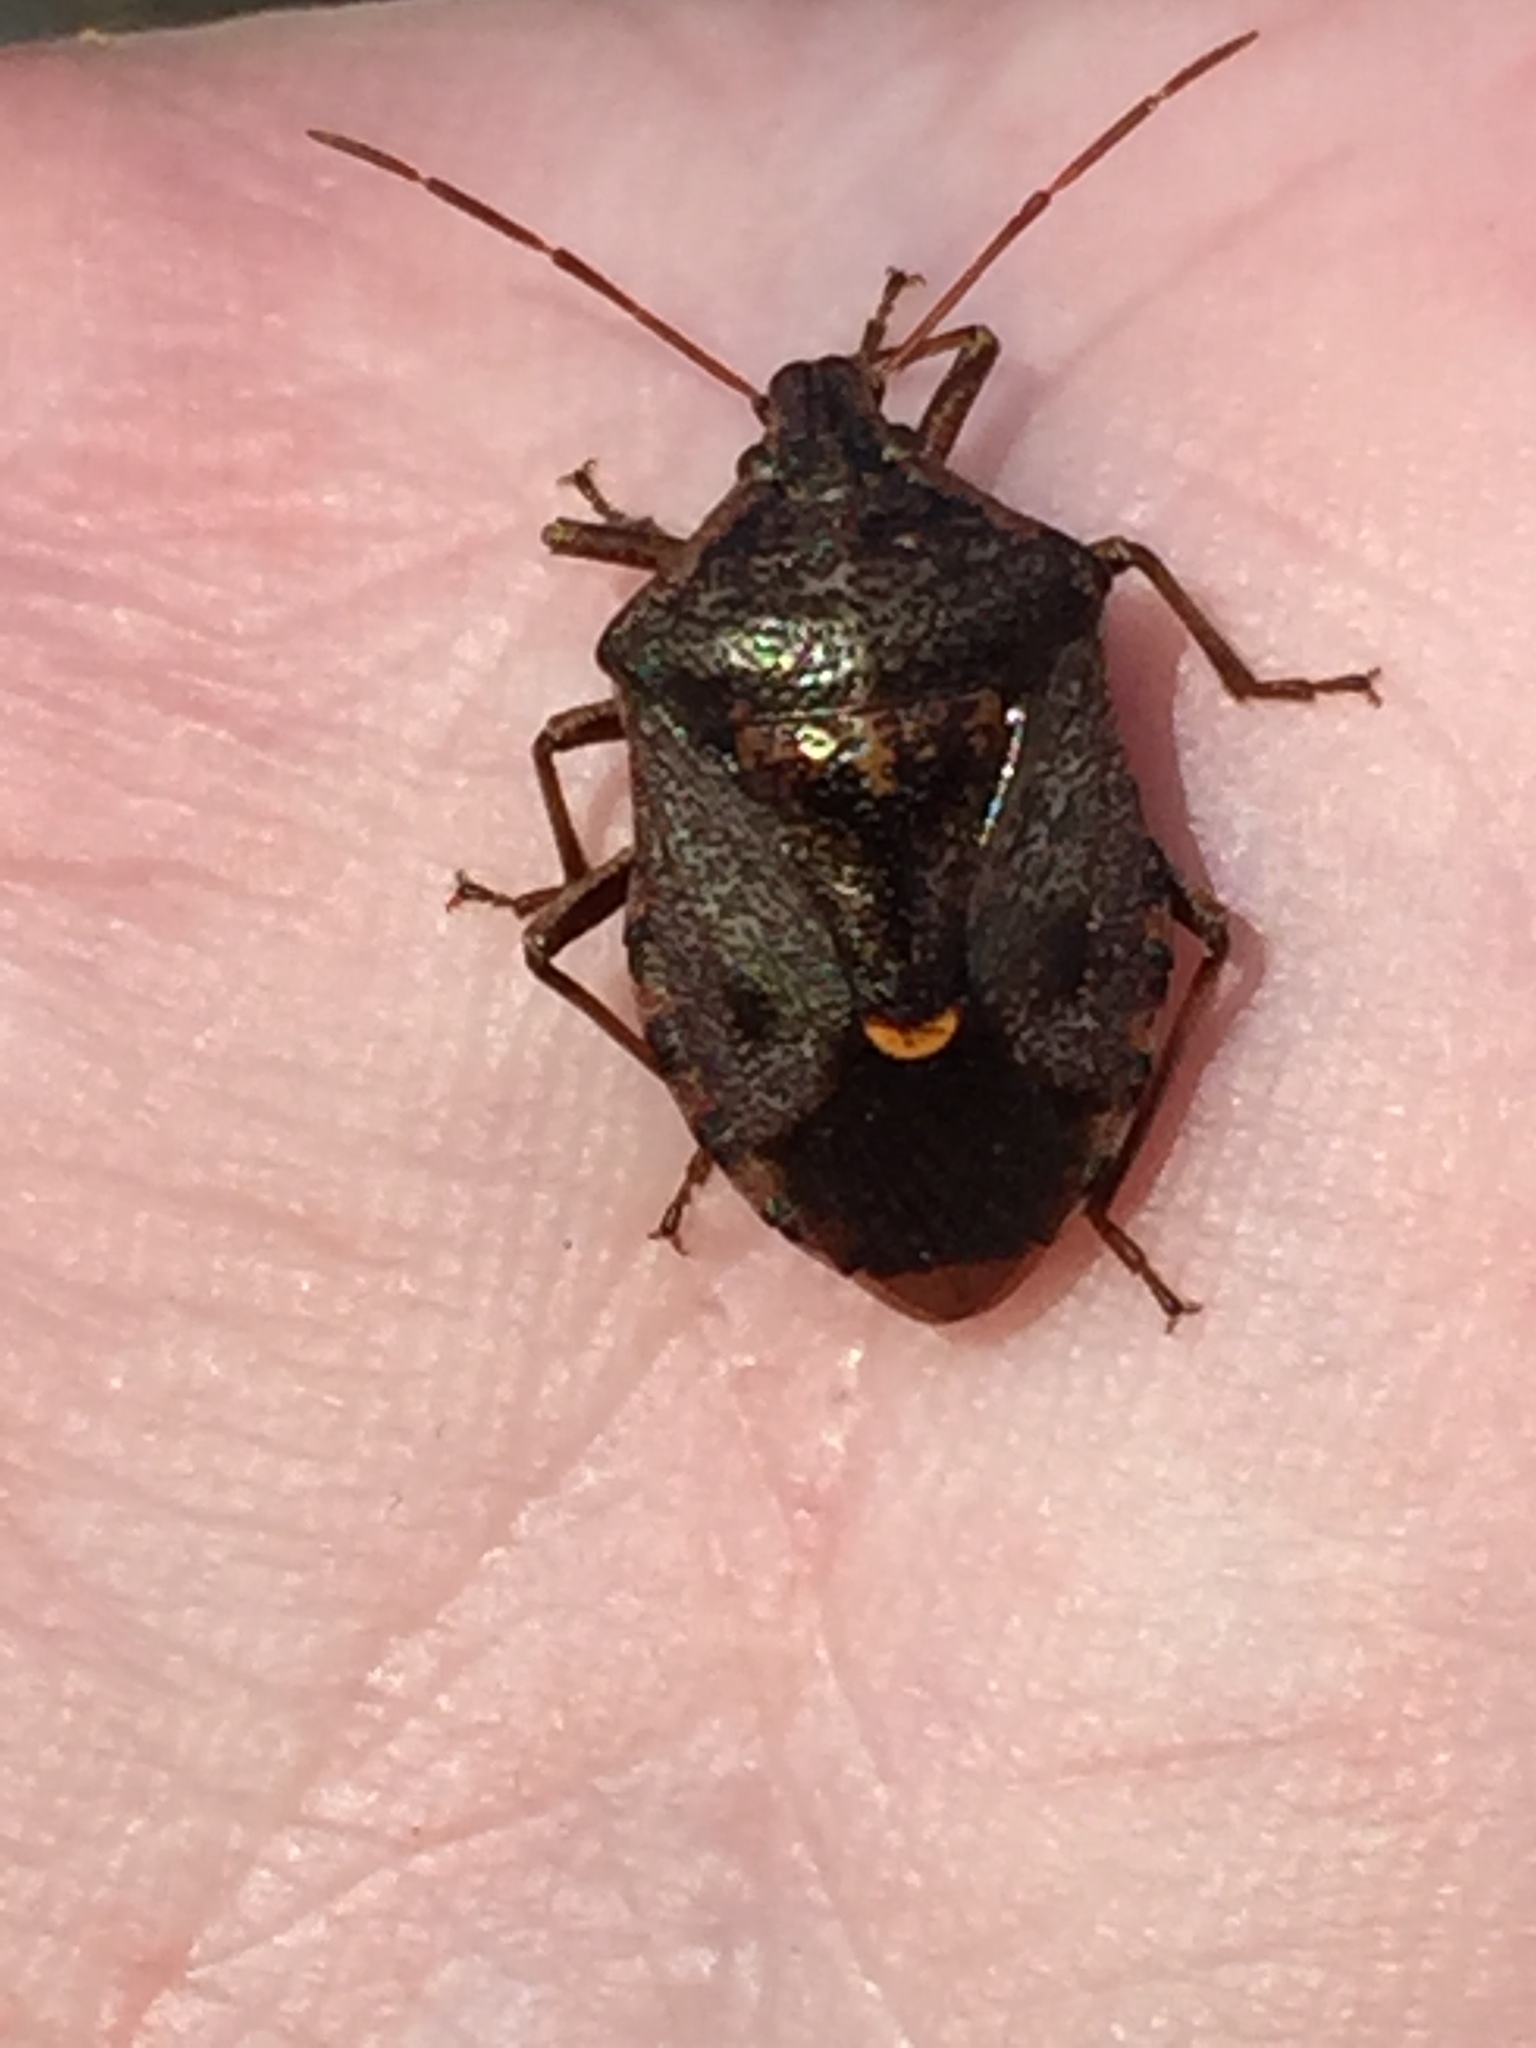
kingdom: Animalia
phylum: Arthropoda
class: Insecta
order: Hemiptera
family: Pentatomidae
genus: Cermatulus
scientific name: Cermatulus nasalis
